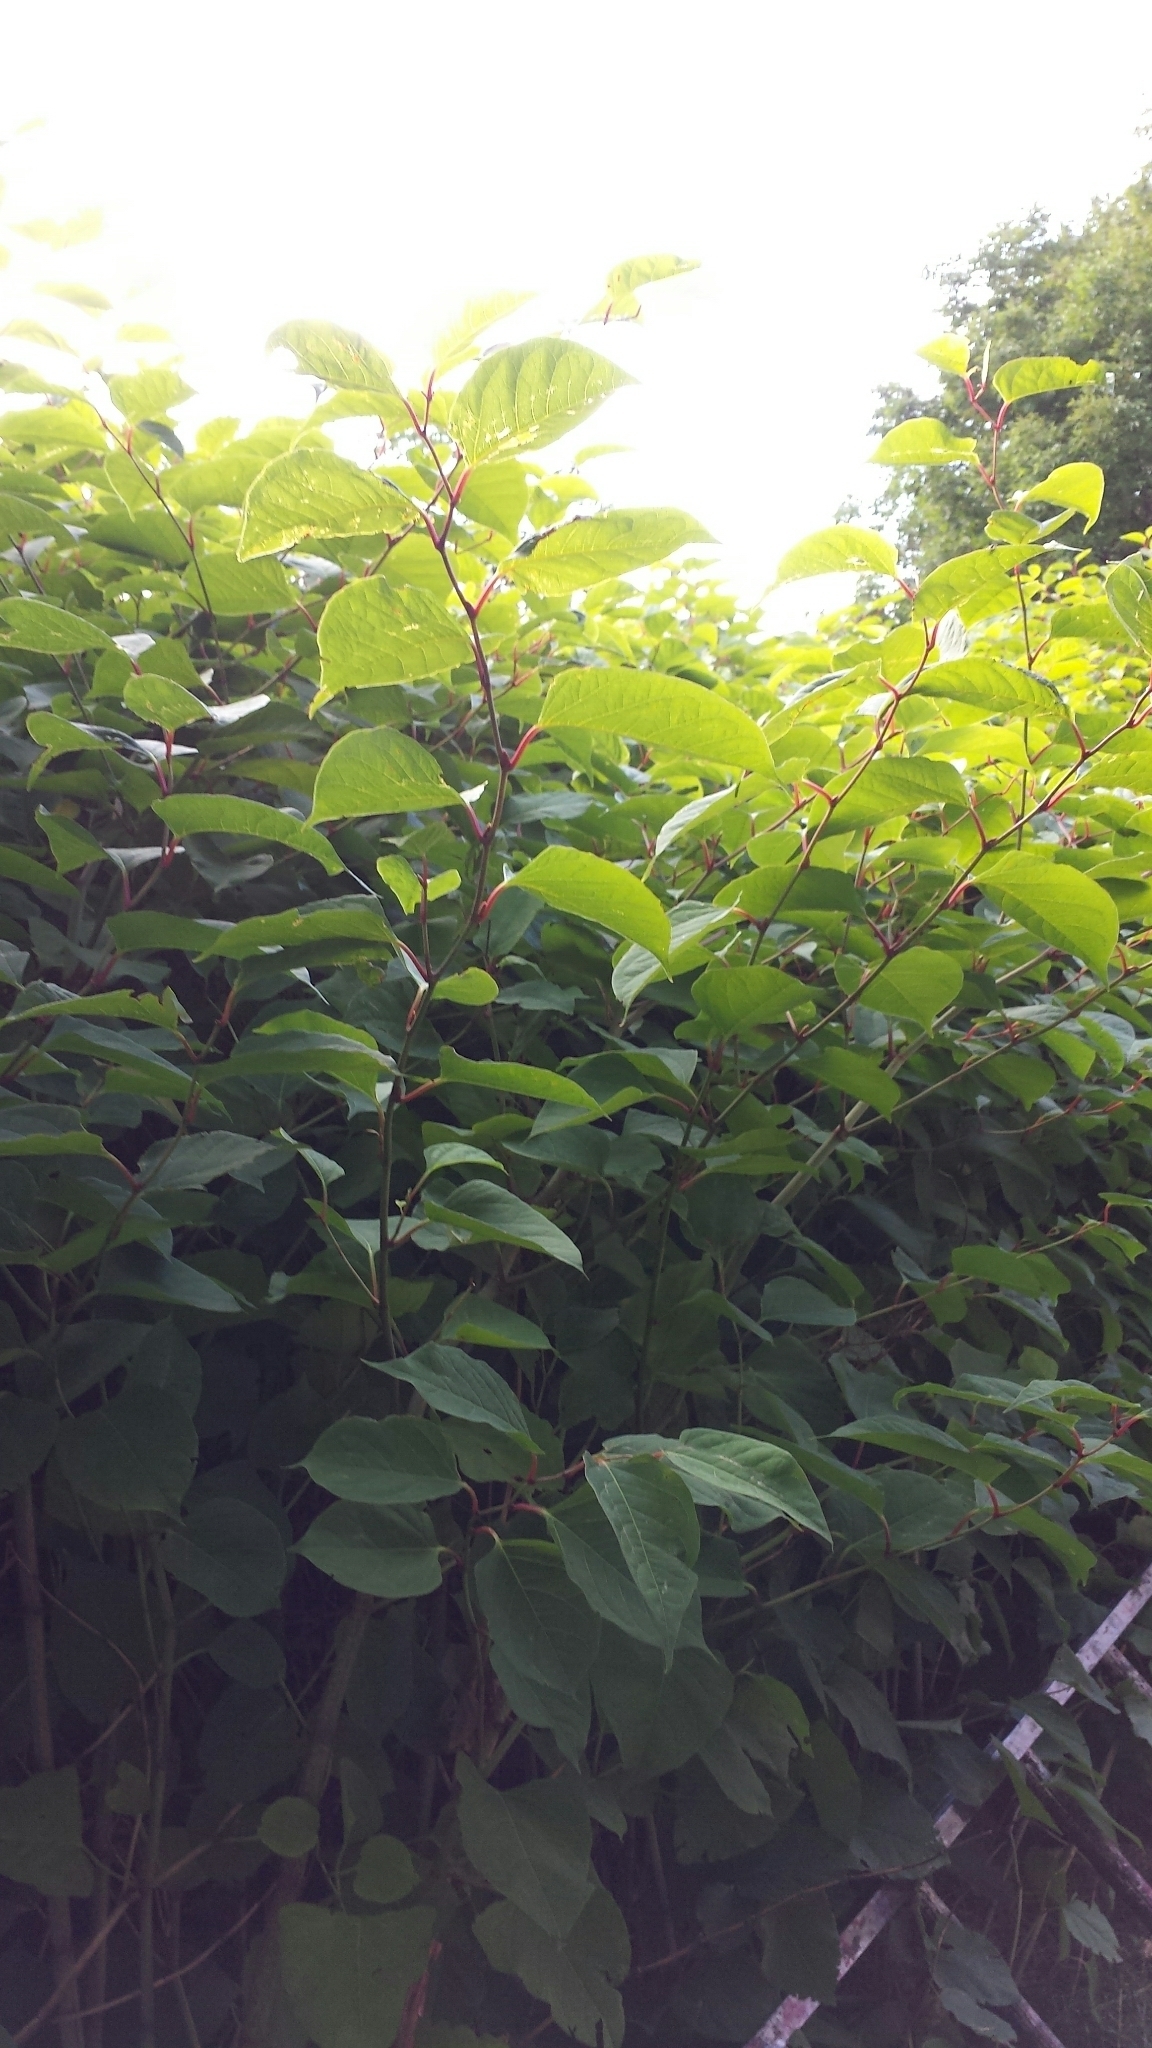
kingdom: Plantae
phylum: Tracheophyta
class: Magnoliopsida
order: Caryophyllales
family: Polygonaceae
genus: Reynoutria
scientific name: Reynoutria japonica
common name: Japanese knotweed
